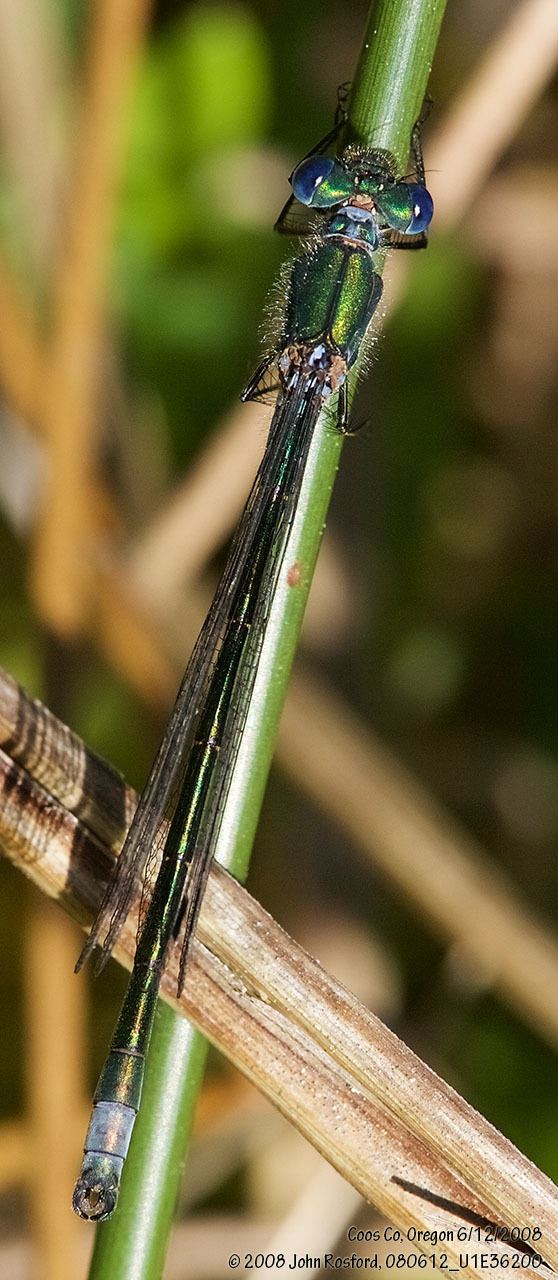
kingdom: Animalia
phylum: Arthropoda
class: Insecta
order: Odonata
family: Lestidae
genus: Lestes
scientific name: Lestes dryas
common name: Scarce emerald damselfly
